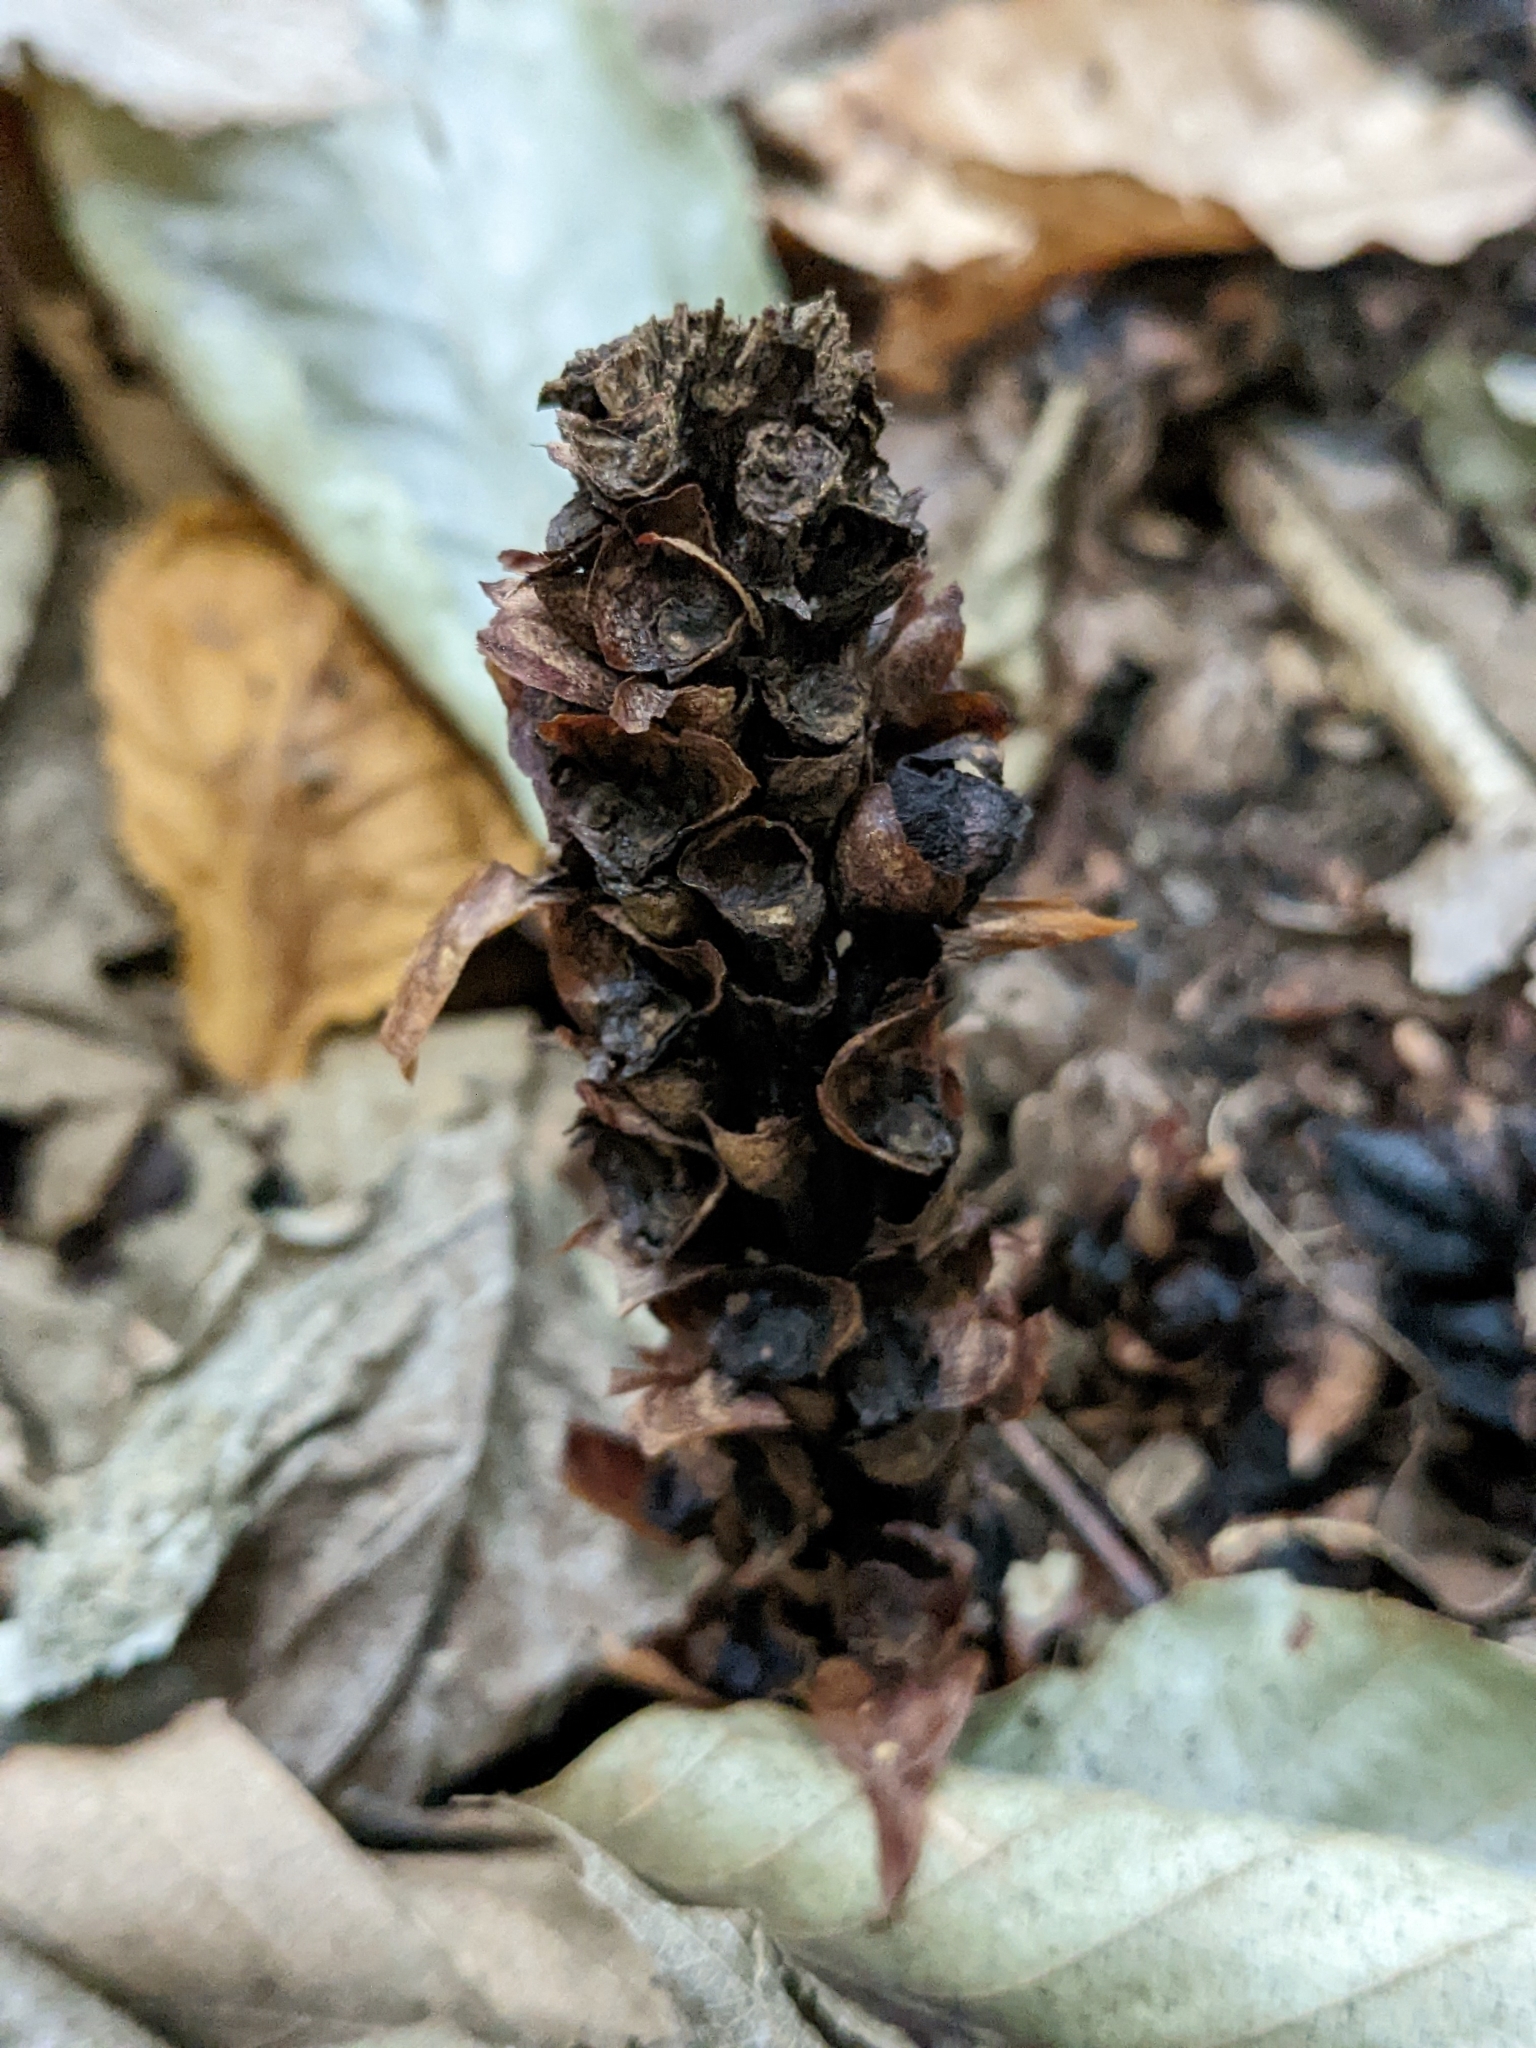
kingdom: Plantae
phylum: Tracheophyta
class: Magnoliopsida
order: Lamiales
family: Orobanchaceae
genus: Conopholis
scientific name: Conopholis americana
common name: American cancer-root
